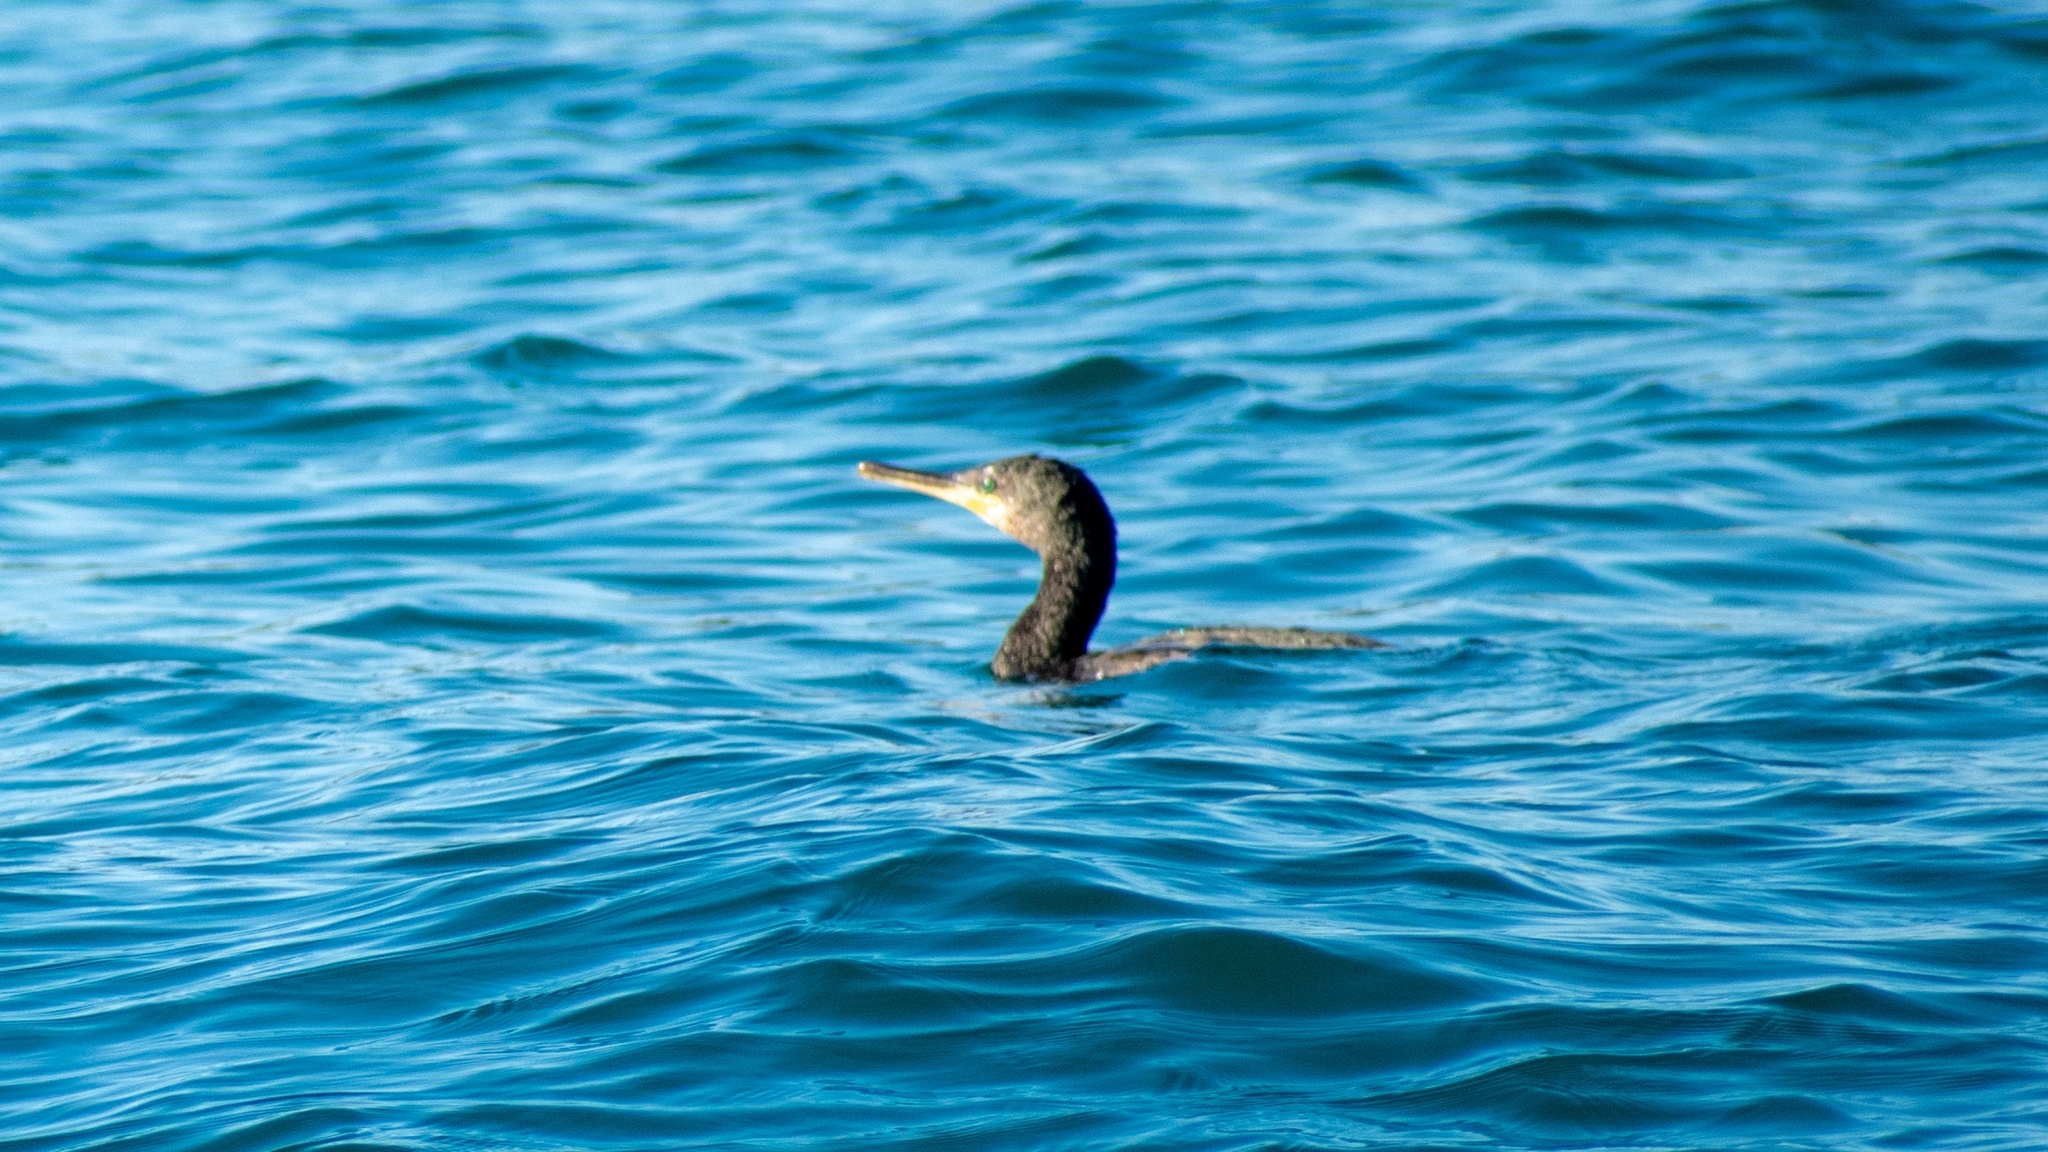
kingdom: Animalia
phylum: Chordata
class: Aves
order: Suliformes
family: Phalacrocoracidae
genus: Phalacrocorax
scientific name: Phalacrocorax aristotelis
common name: European shag
